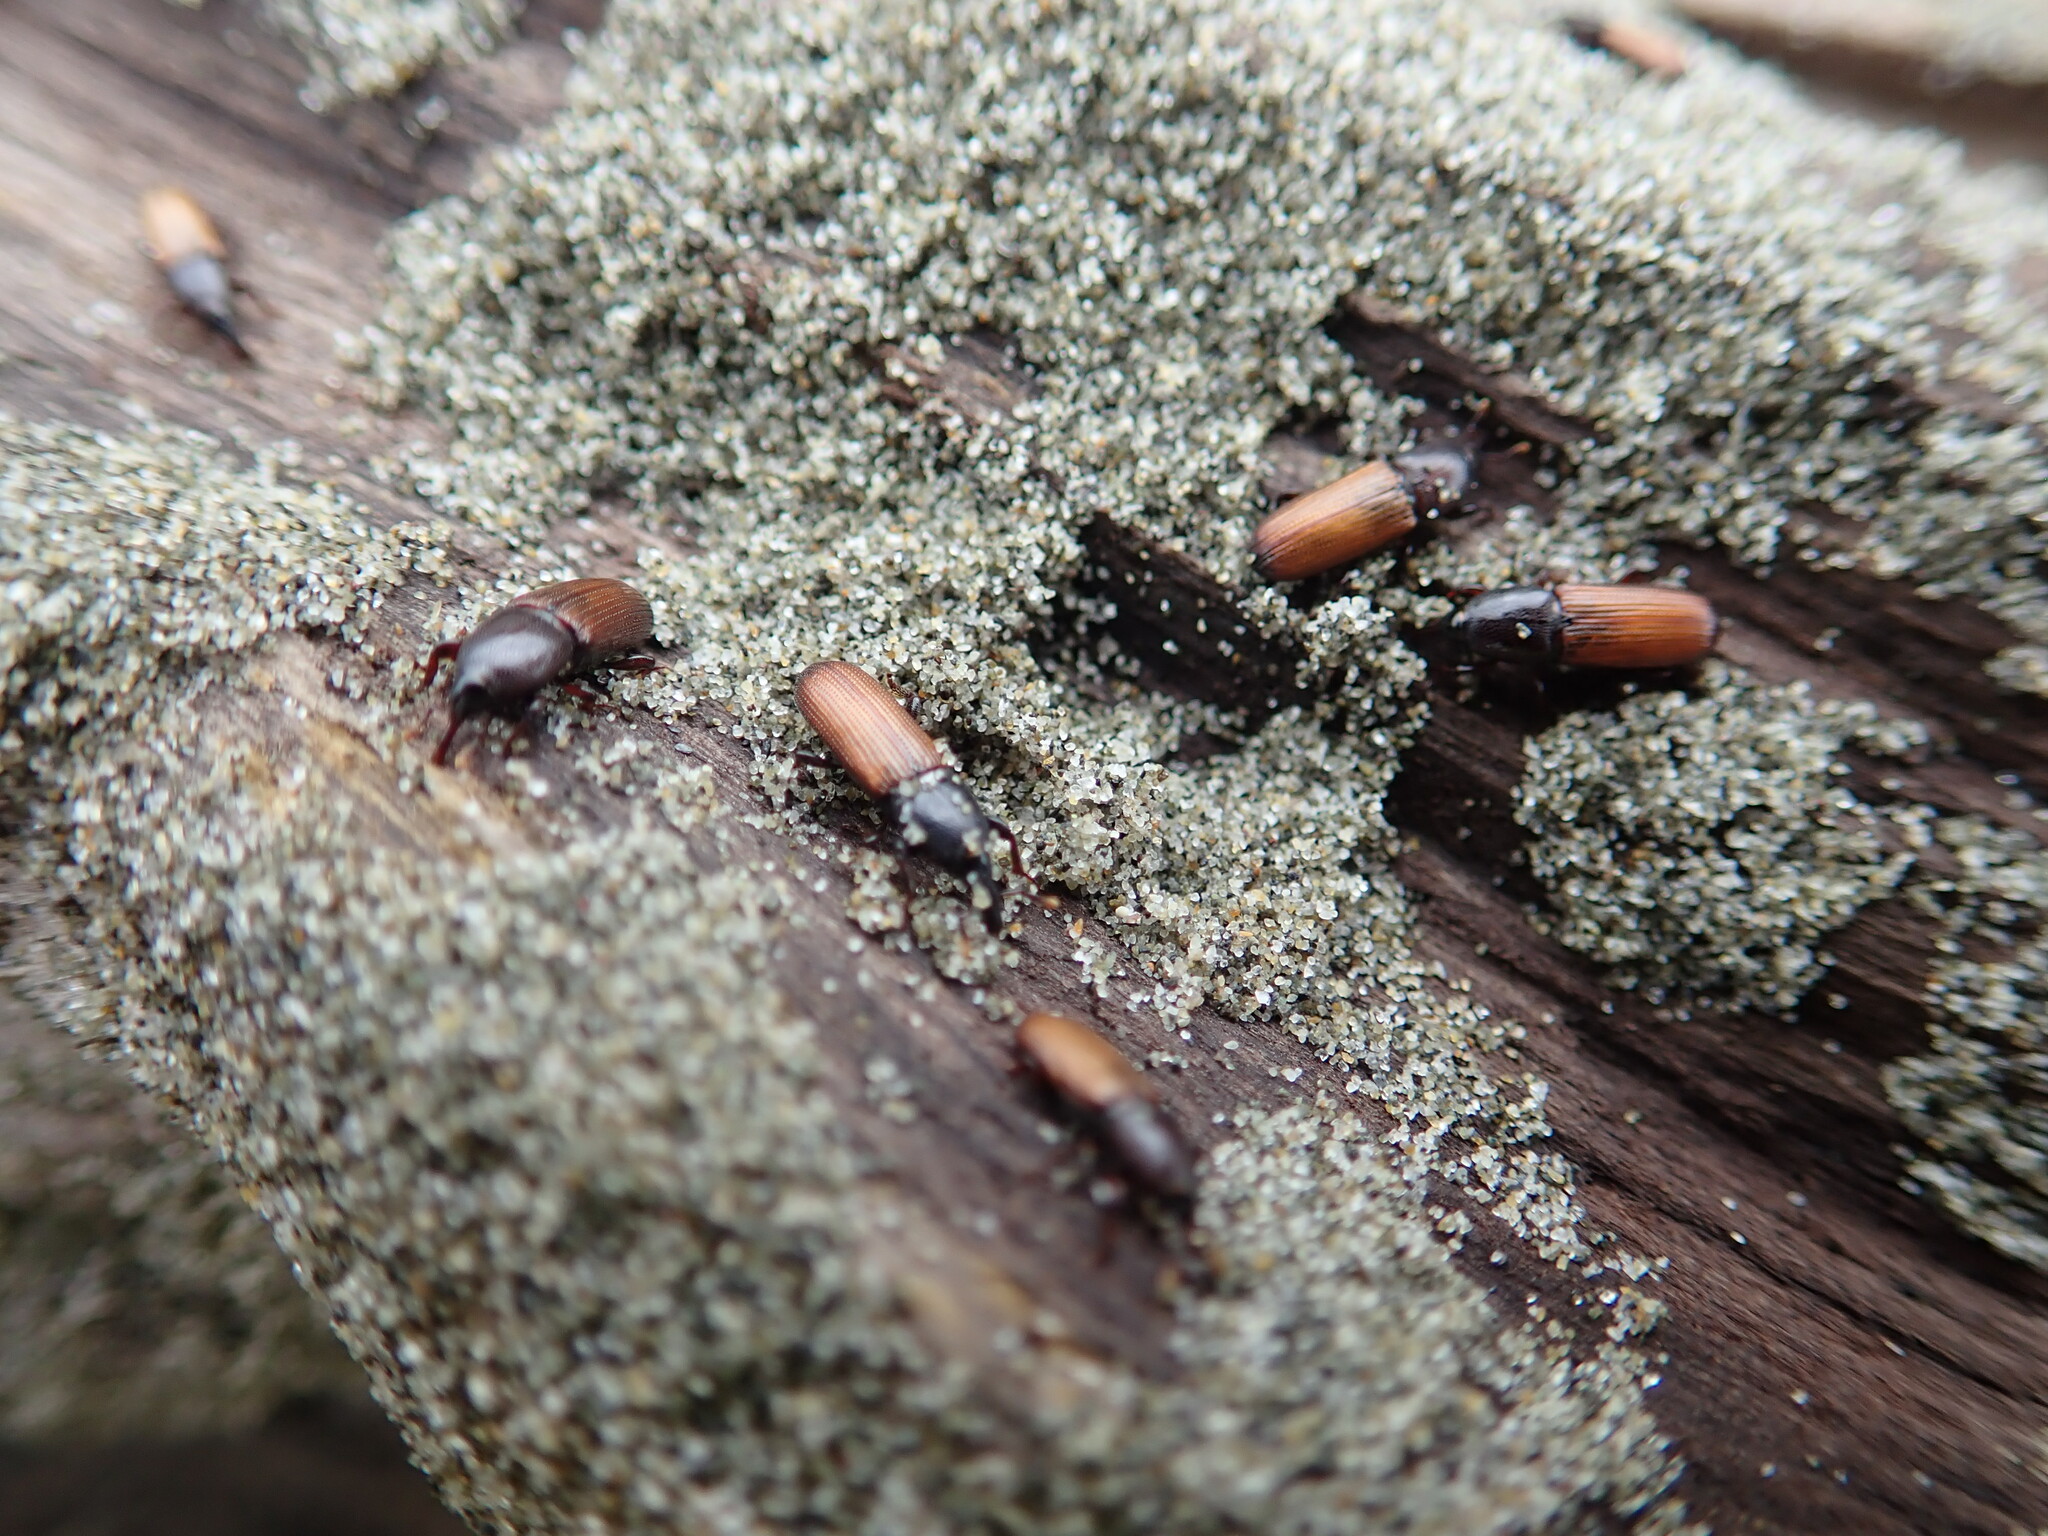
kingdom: Animalia
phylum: Arthropoda
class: Insecta
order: Coleoptera
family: Curculionidae
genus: Mesites
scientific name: Mesites pallidipennis
